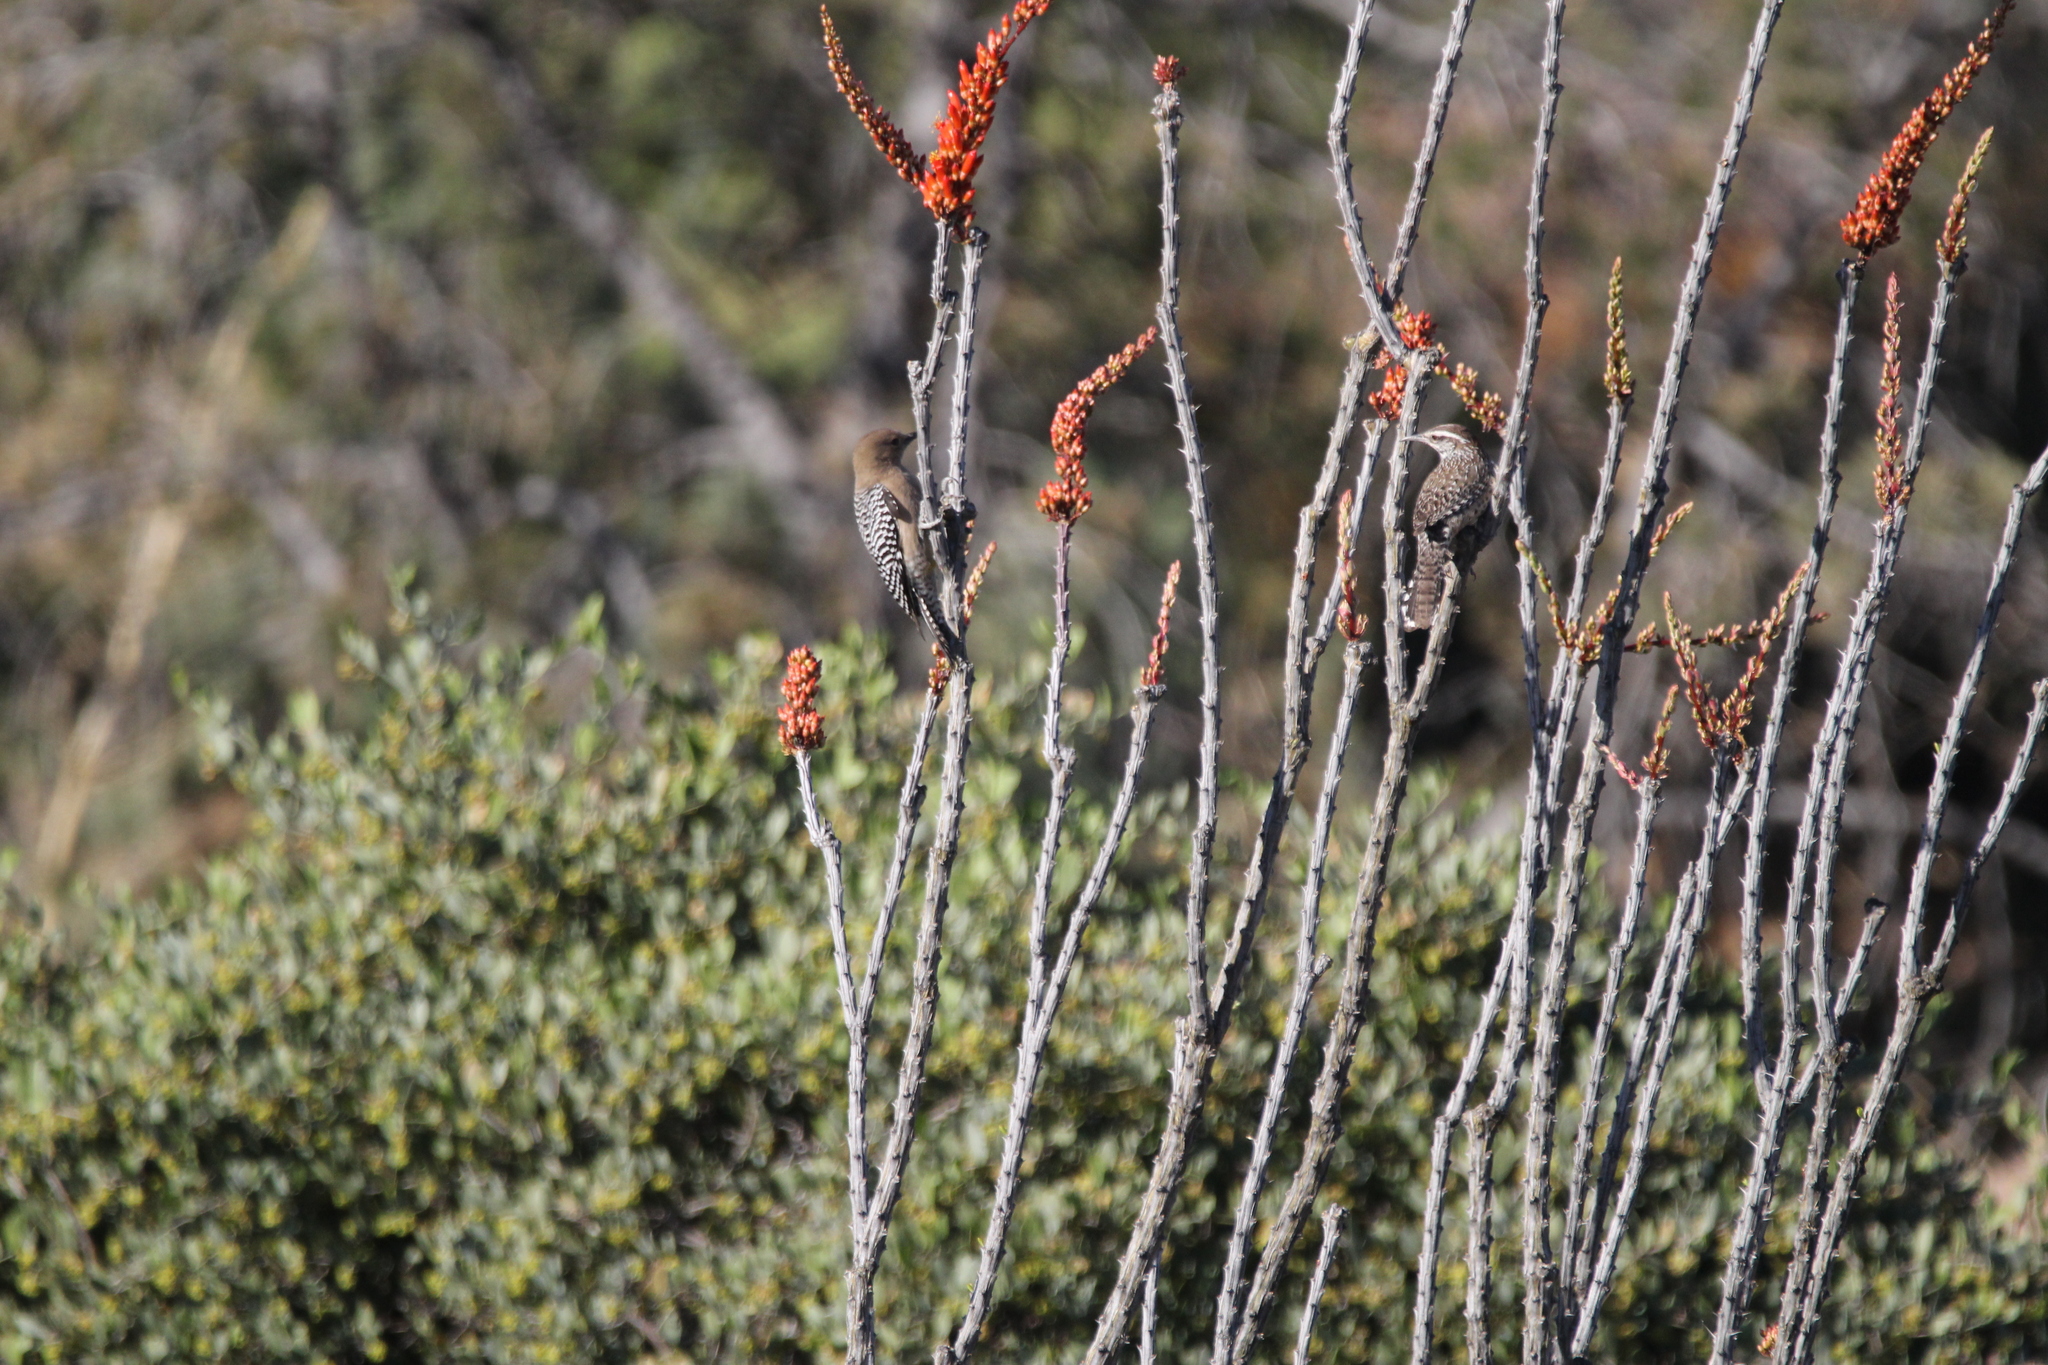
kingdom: Animalia
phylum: Chordata
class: Aves
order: Piciformes
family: Picidae
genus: Melanerpes
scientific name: Melanerpes uropygialis
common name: Gila woodpecker
